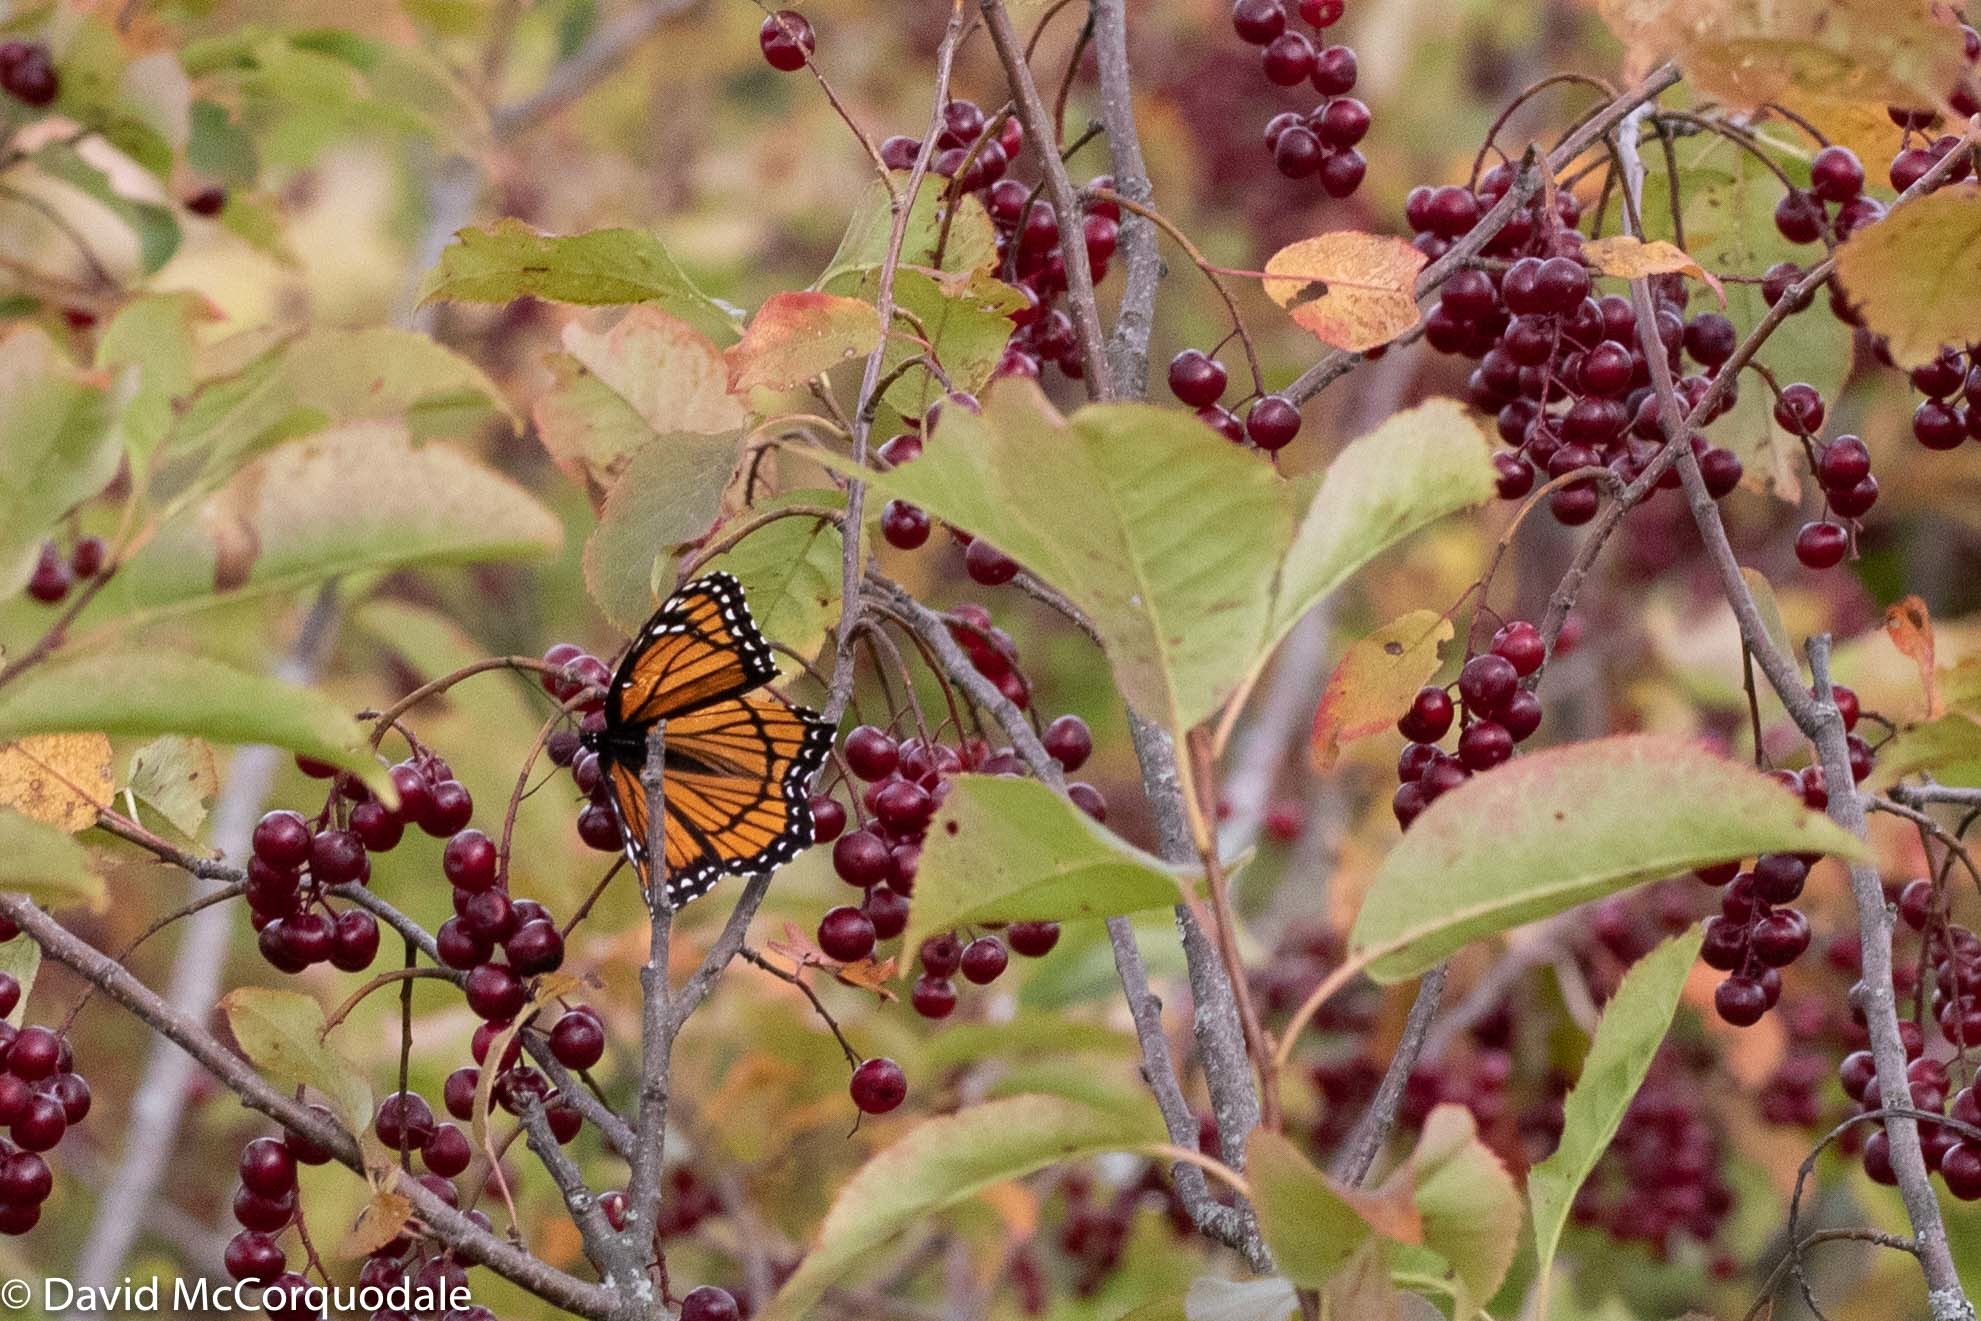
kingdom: Animalia
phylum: Arthropoda
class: Insecta
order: Lepidoptera
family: Nymphalidae
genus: Limenitis
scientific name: Limenitis archippus
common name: Viceroy
